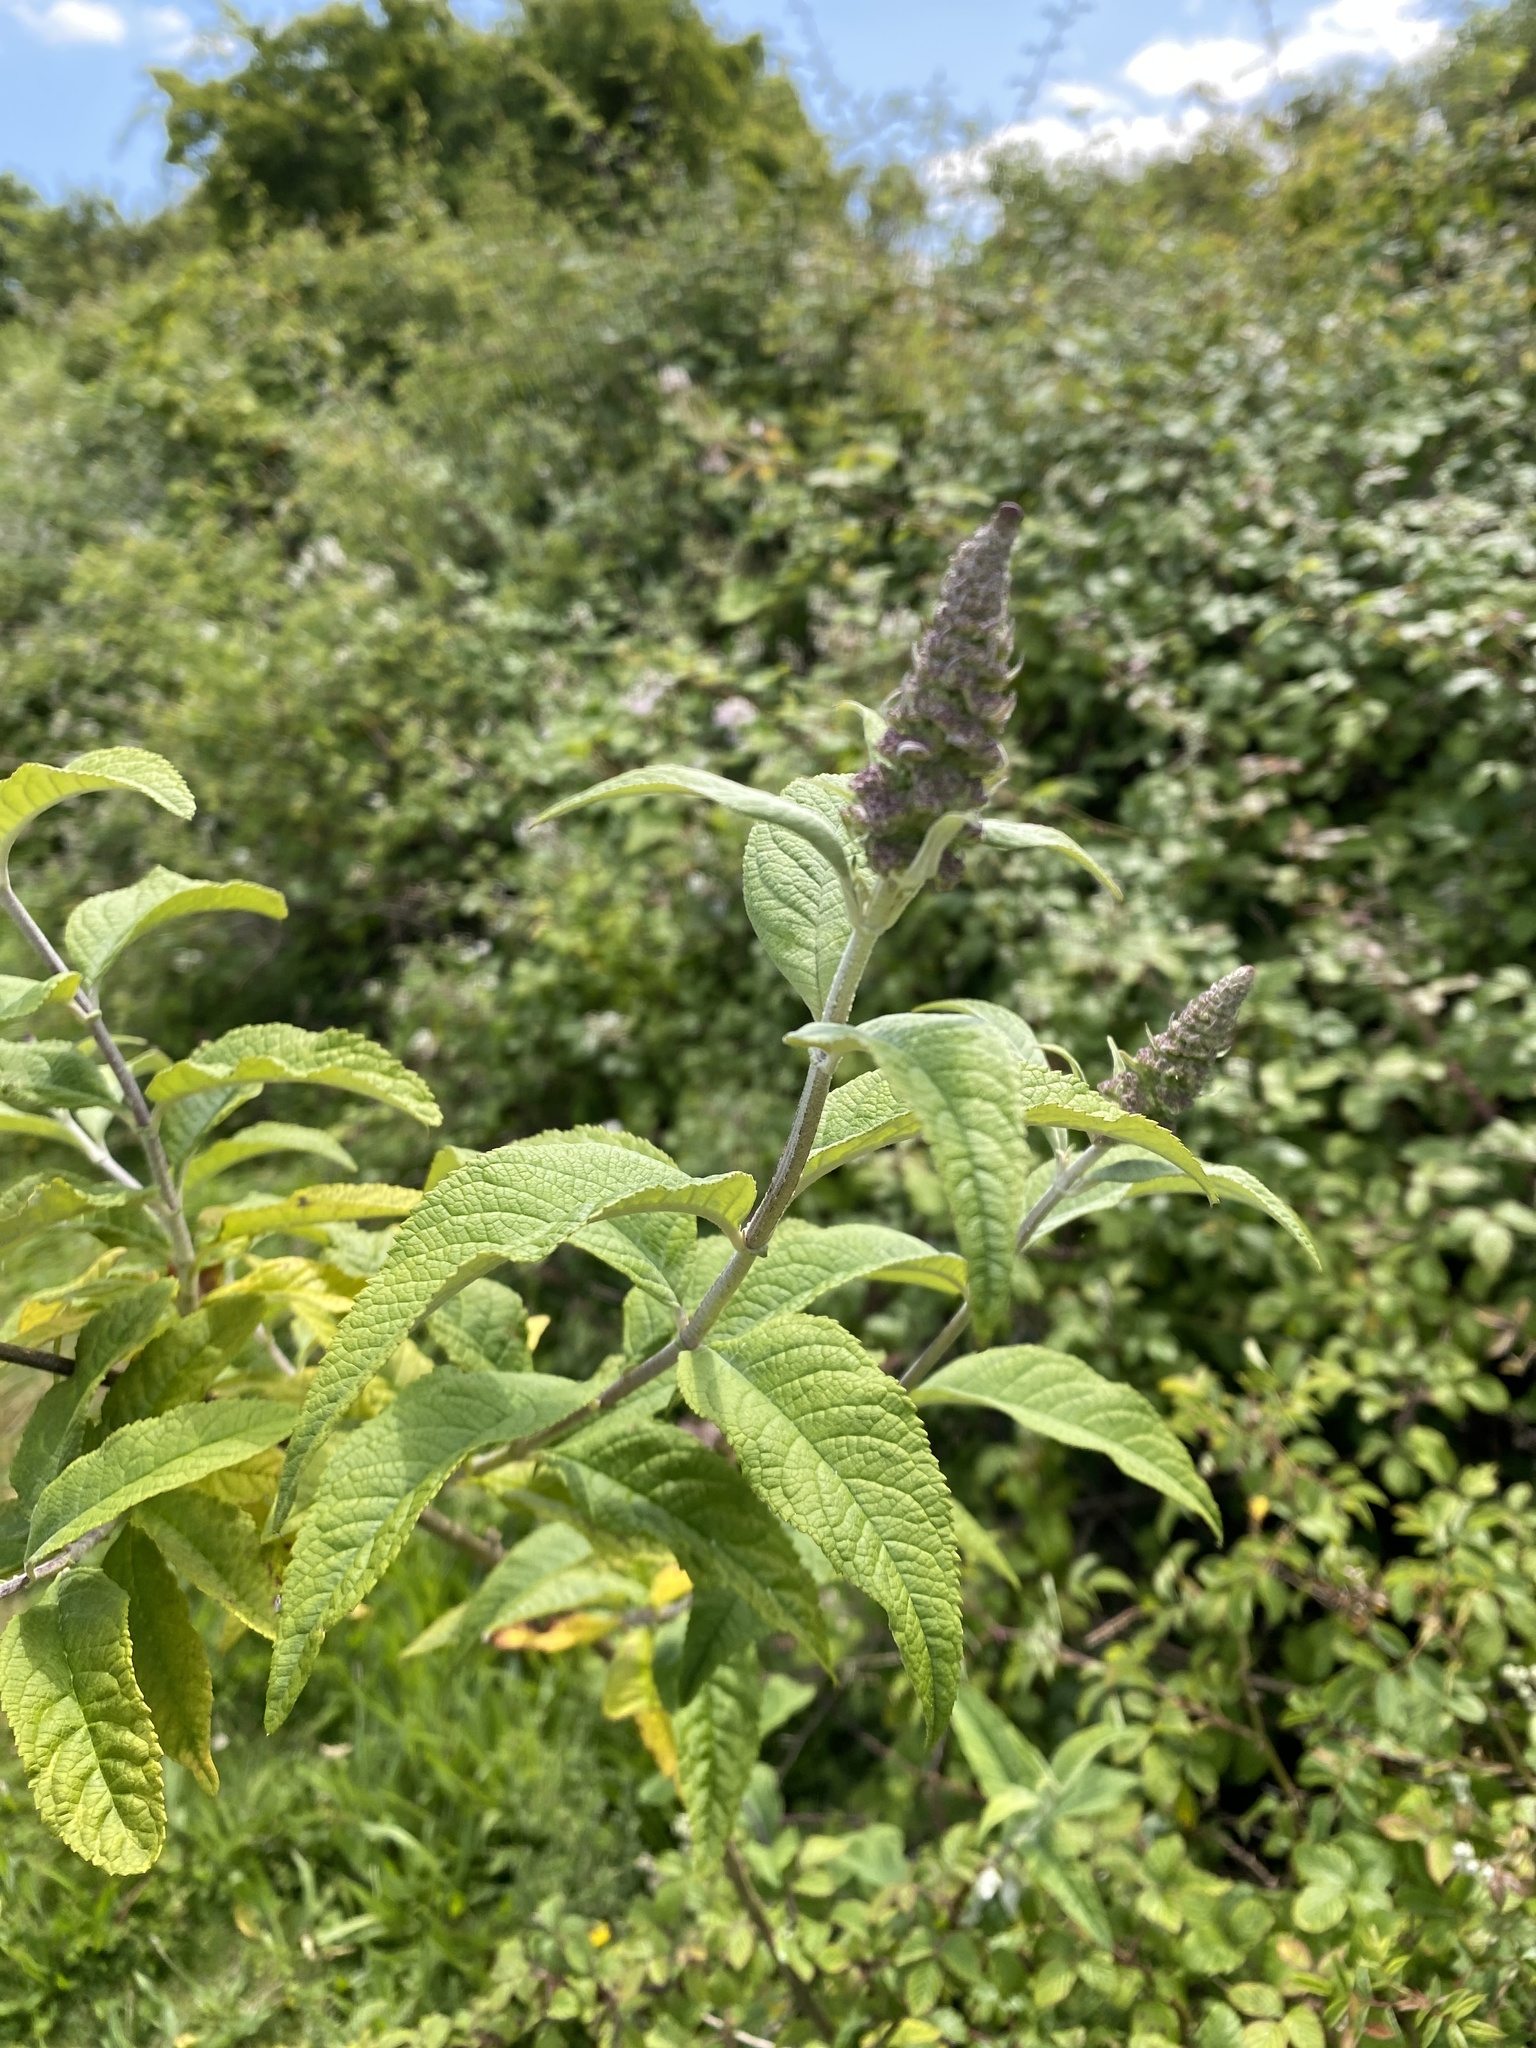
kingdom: Plantae
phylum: Tracheophyta
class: Magnoliopsida
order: Lamiales
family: Scrophulariaceae
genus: Buddleja
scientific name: Buddleja davidii
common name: Butterfly-bush
